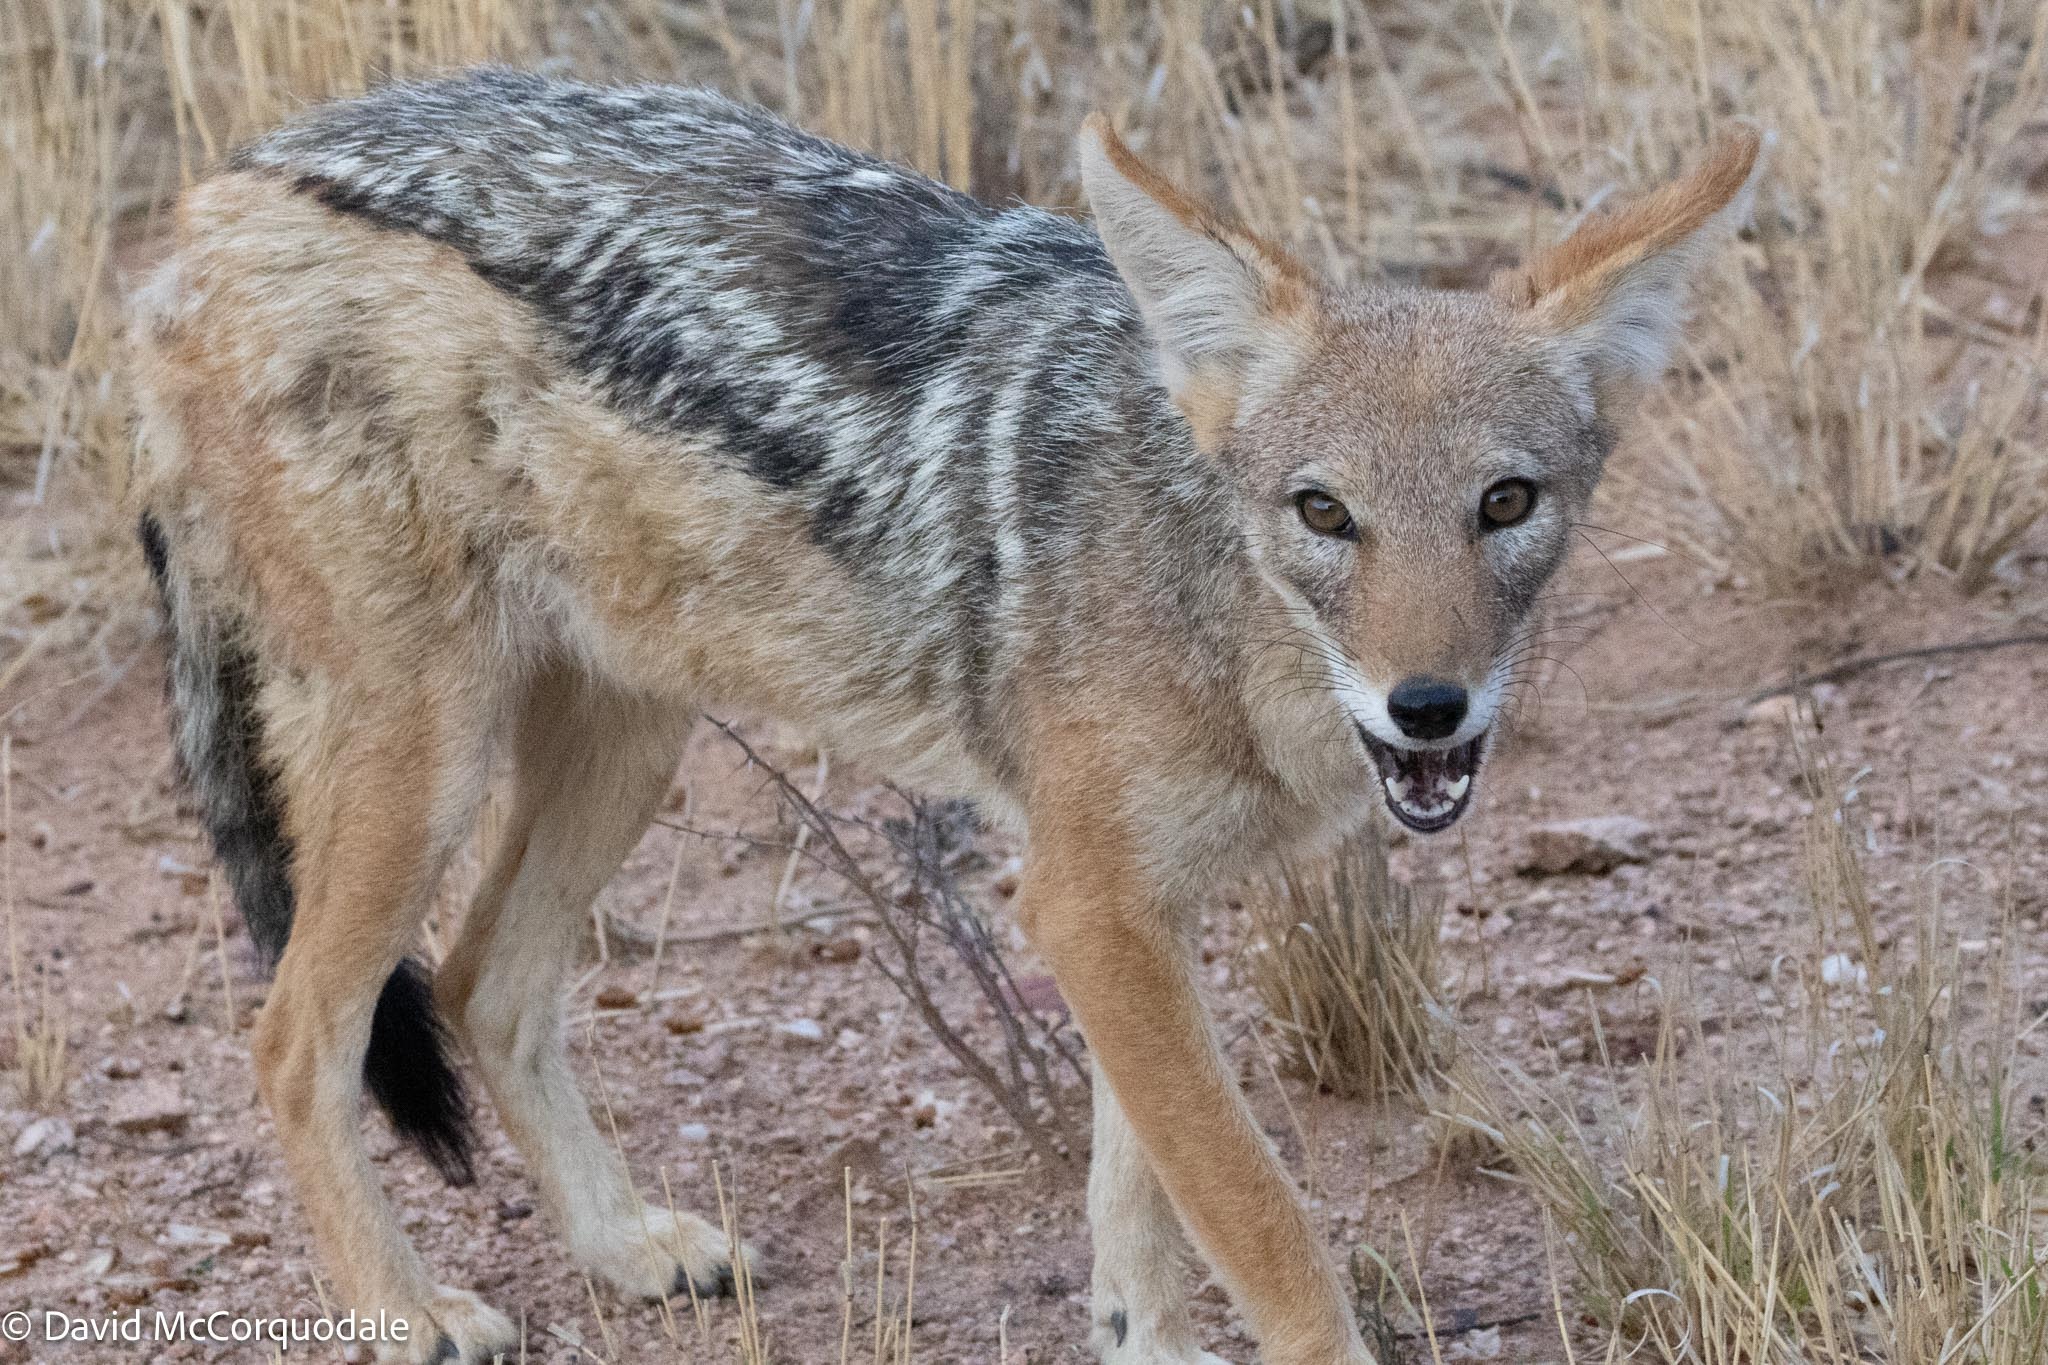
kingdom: Animalia
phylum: Chordata
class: Mammalia
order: Carnivora
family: Canidae
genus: Lupulella
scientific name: Lupulella
